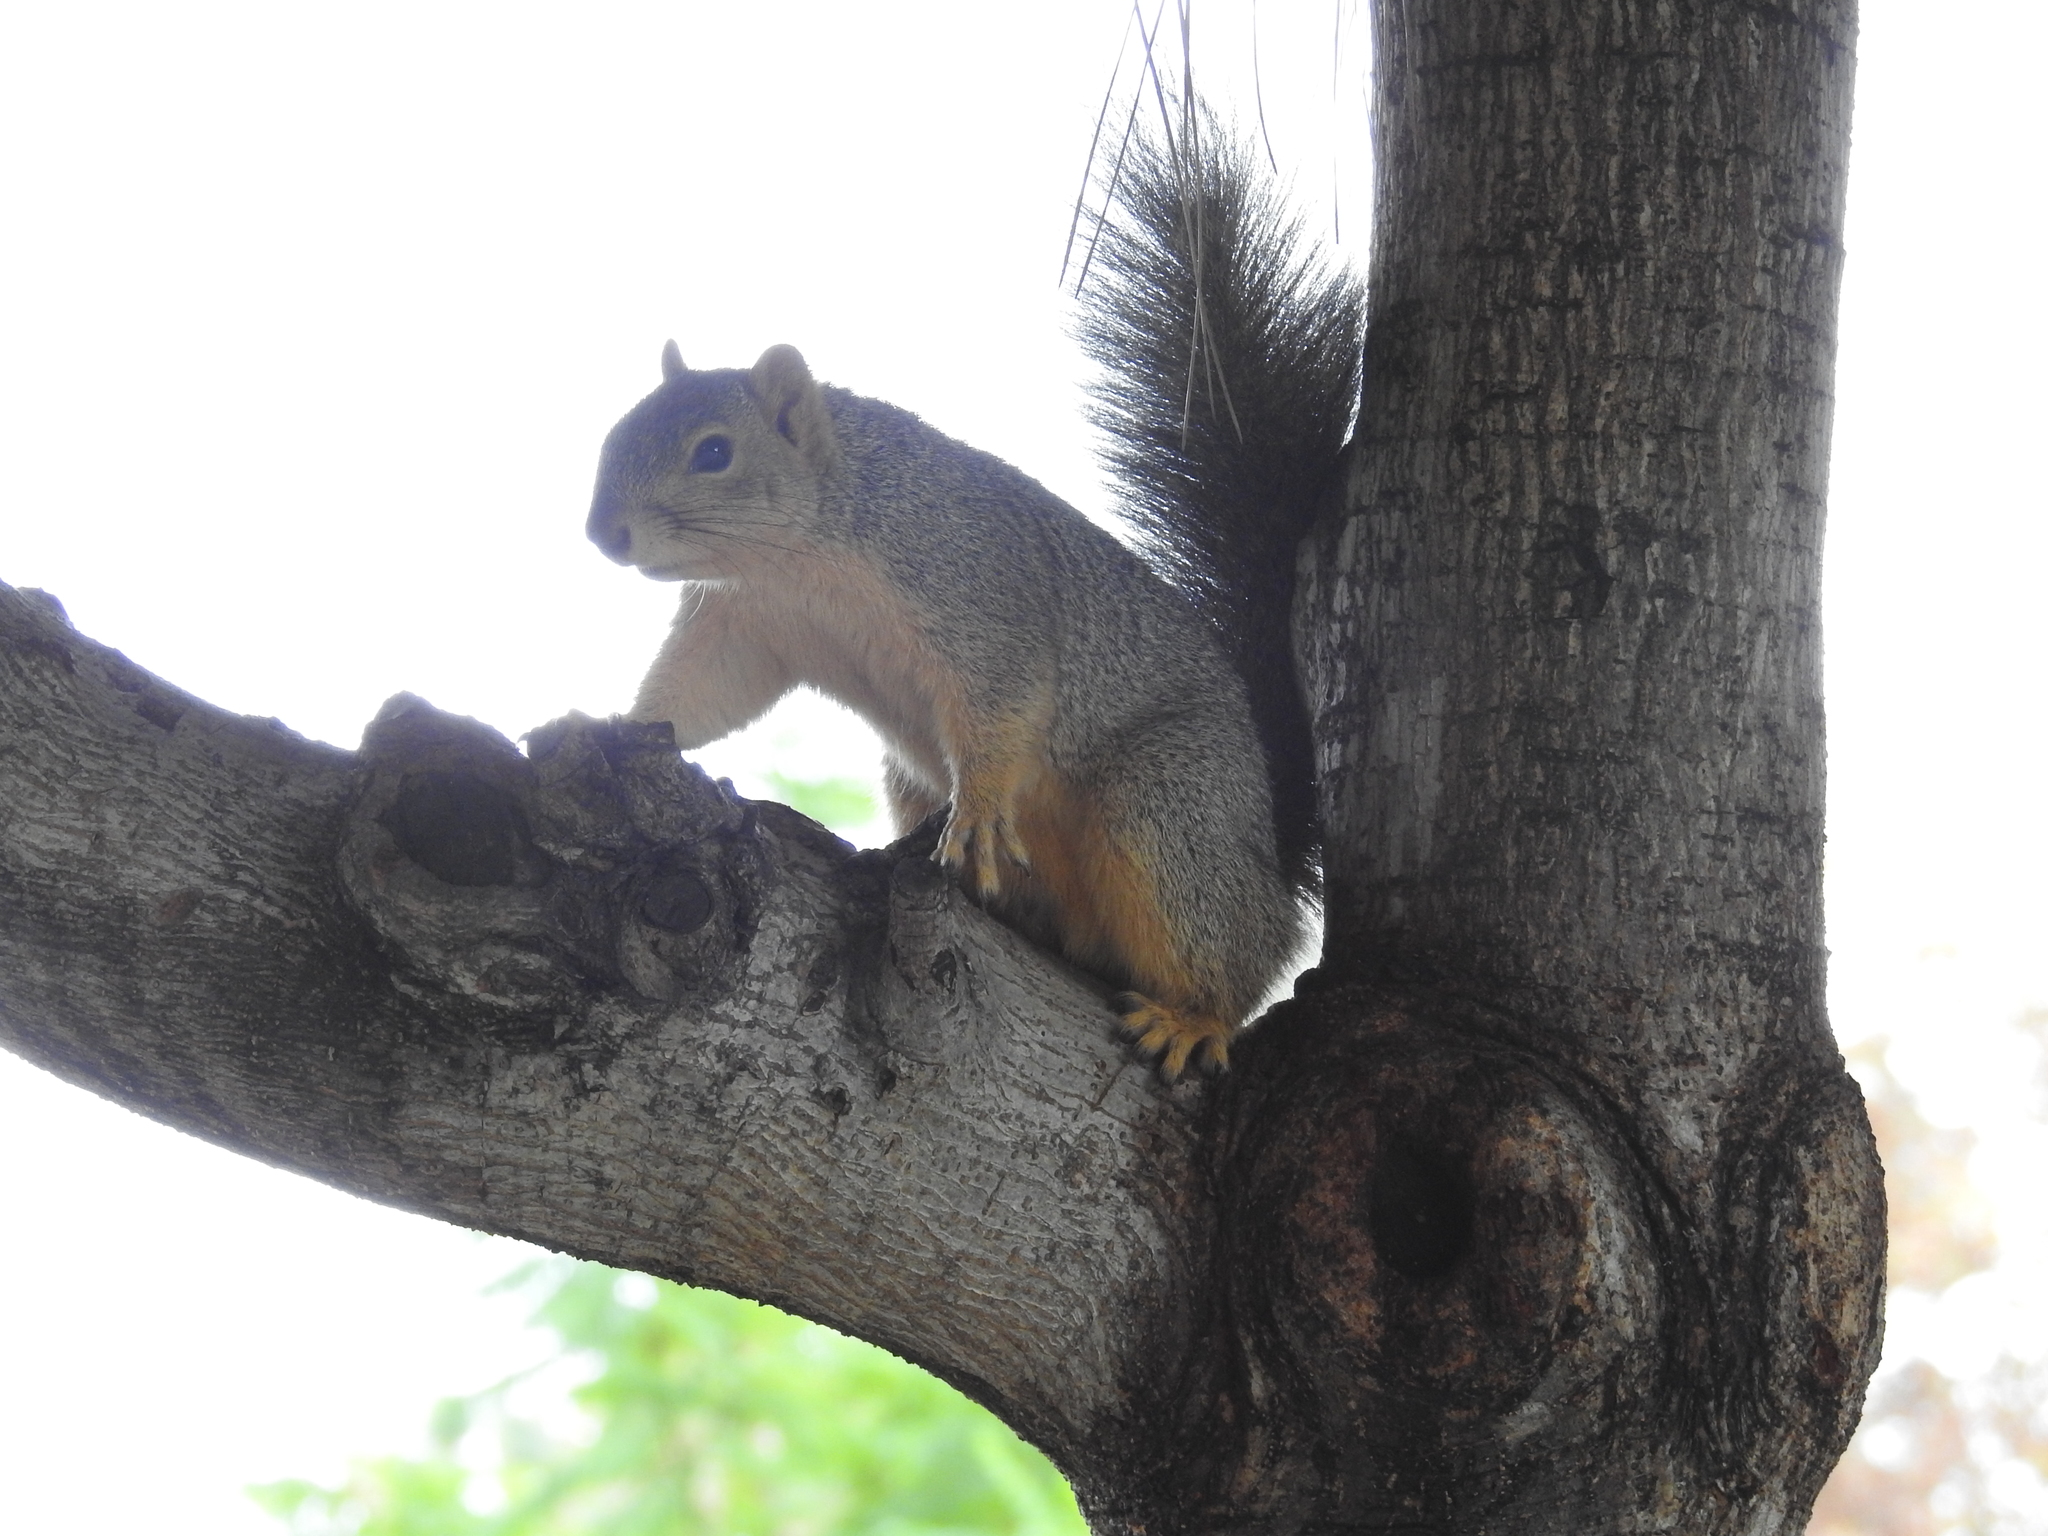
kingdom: Animalia
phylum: Chordata
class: Mammalia
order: Rodentia
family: Sciuridae
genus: Sciurus
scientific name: Sciurus niger
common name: Fox squirrel
